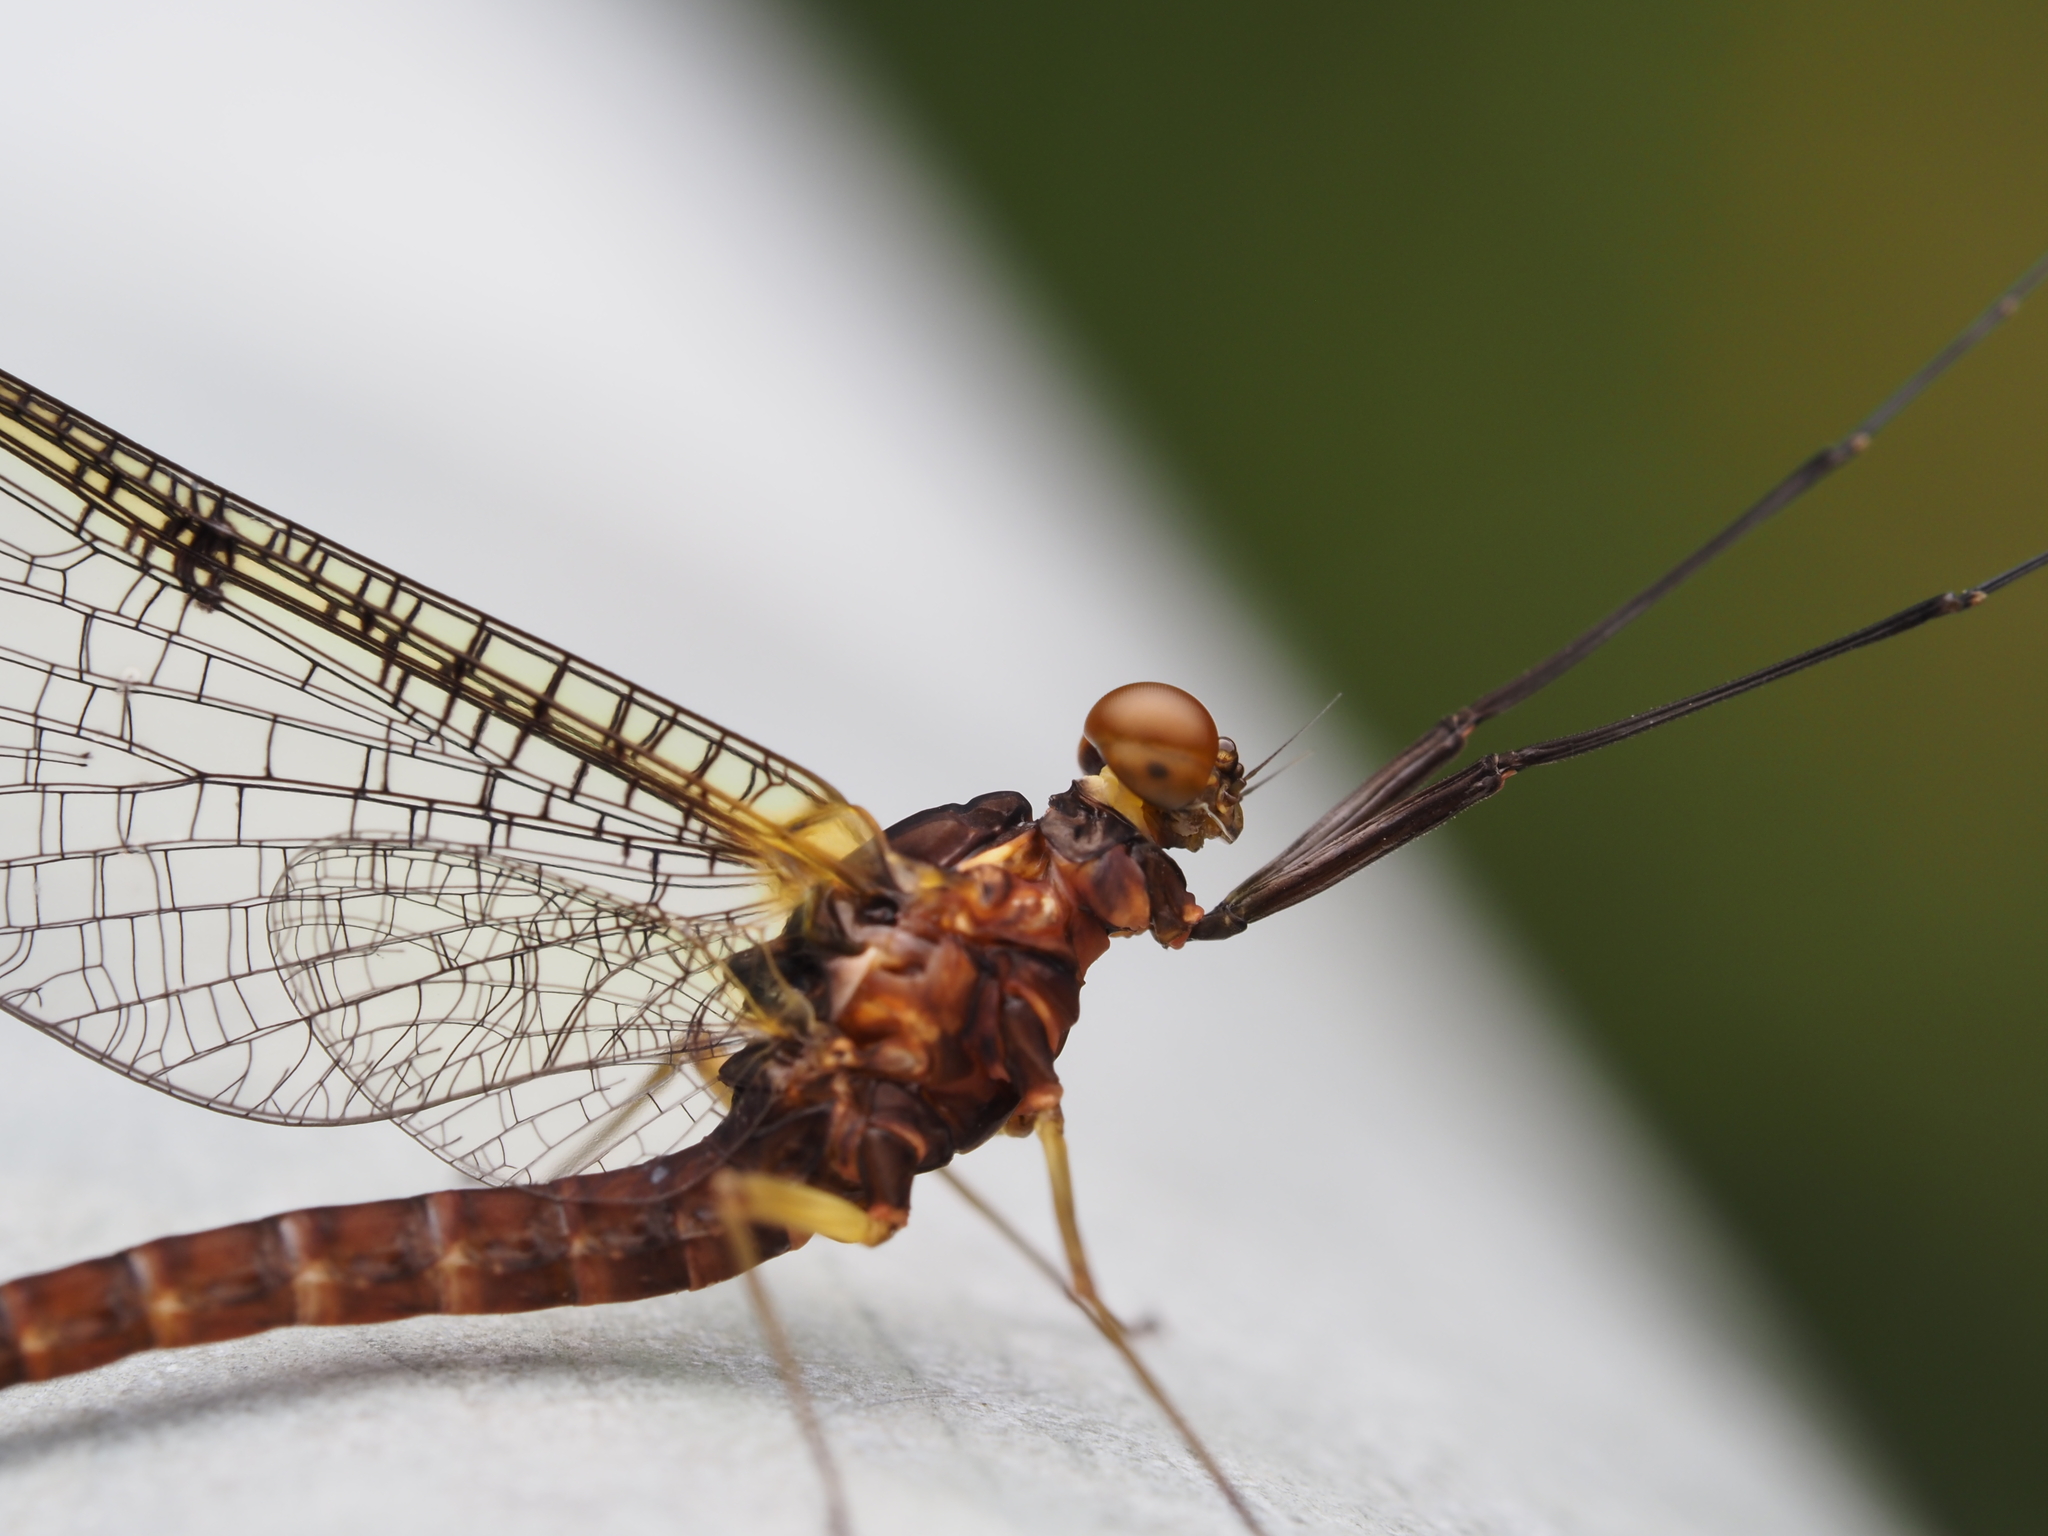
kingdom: Animalia
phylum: Arthropoda
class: Insecta
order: Ephemeroptera
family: Coloburiscidae
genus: Coloburiscus
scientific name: Coloburiscus humeralis
